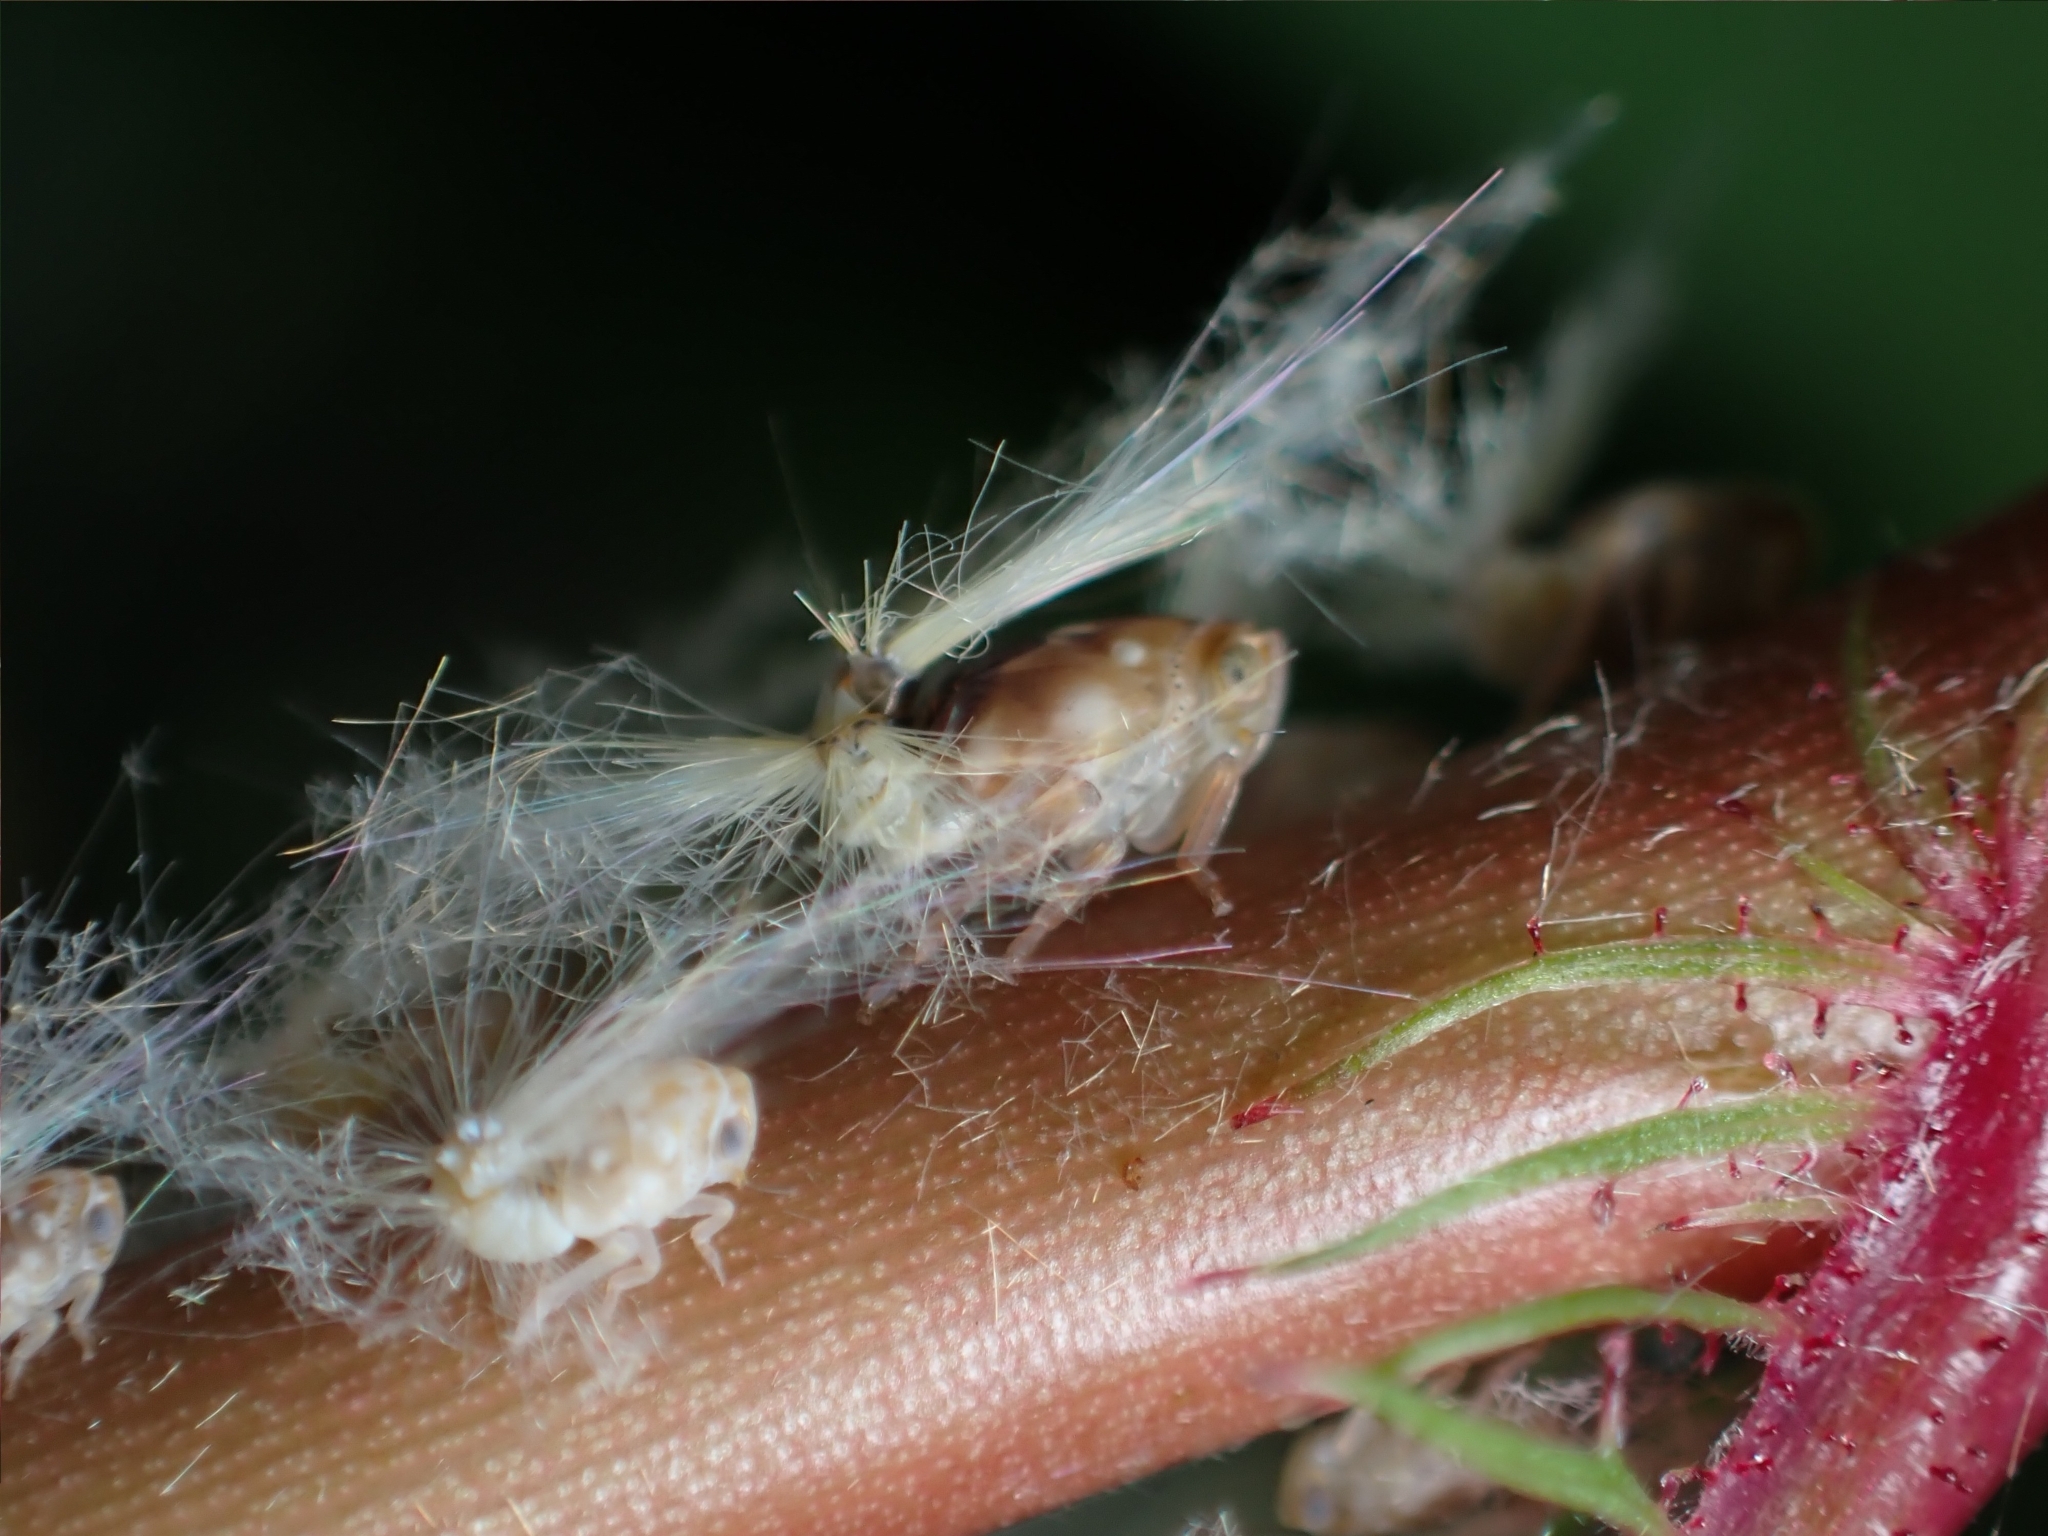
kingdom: Animalia
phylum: Arthropoda
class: Insecta
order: Hemiptera
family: Ricaniidae
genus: Scolypopa
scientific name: Scolypopa australis
